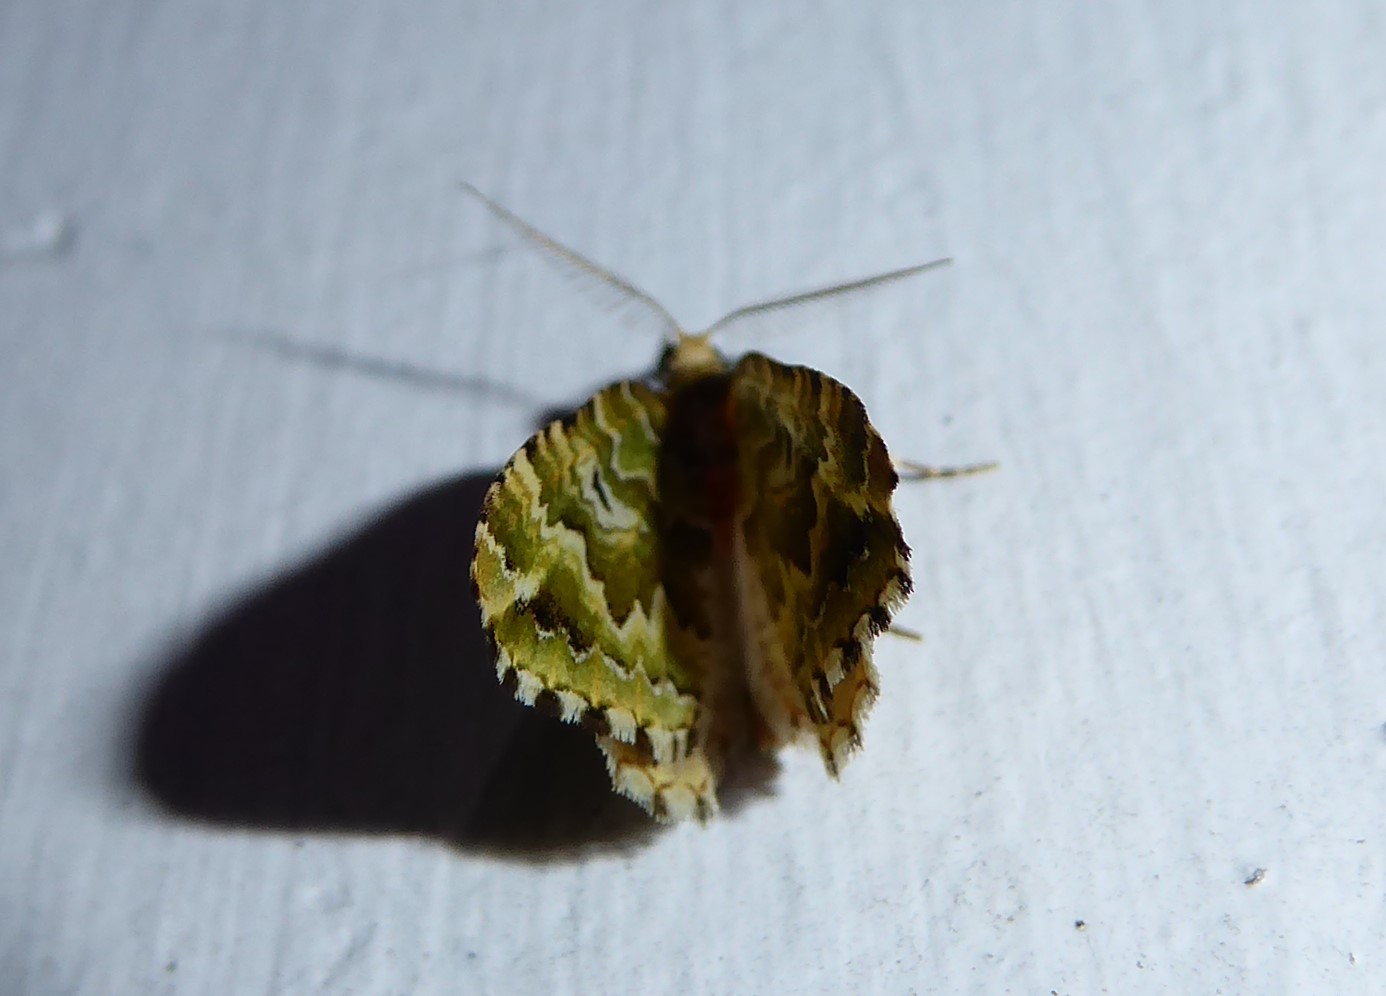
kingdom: Animalia
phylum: Arthropoda
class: Insecta
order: Lepidoptera
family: Geometridae
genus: Asaphodes
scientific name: Asaphodes beata
